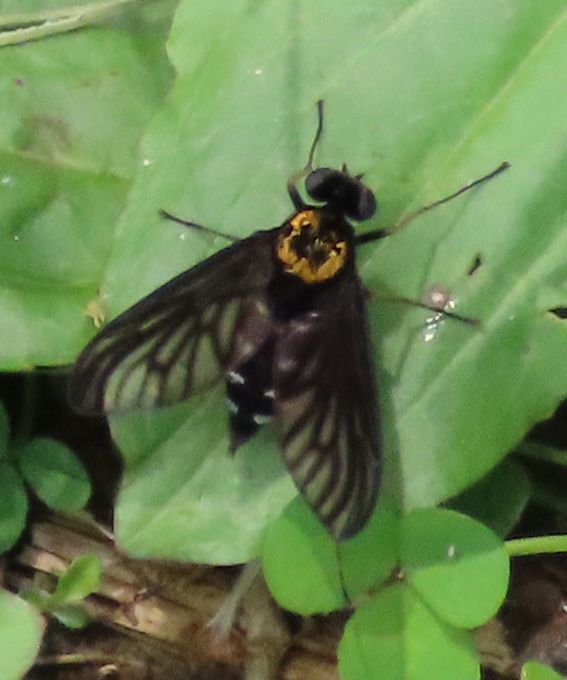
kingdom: Animalia
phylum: Arthropoda
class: Insecta
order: Diptera
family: Rhagionidae
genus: Chrysopilus
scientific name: Chrysopilus thoracicus
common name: Golden-backed snipe fly
